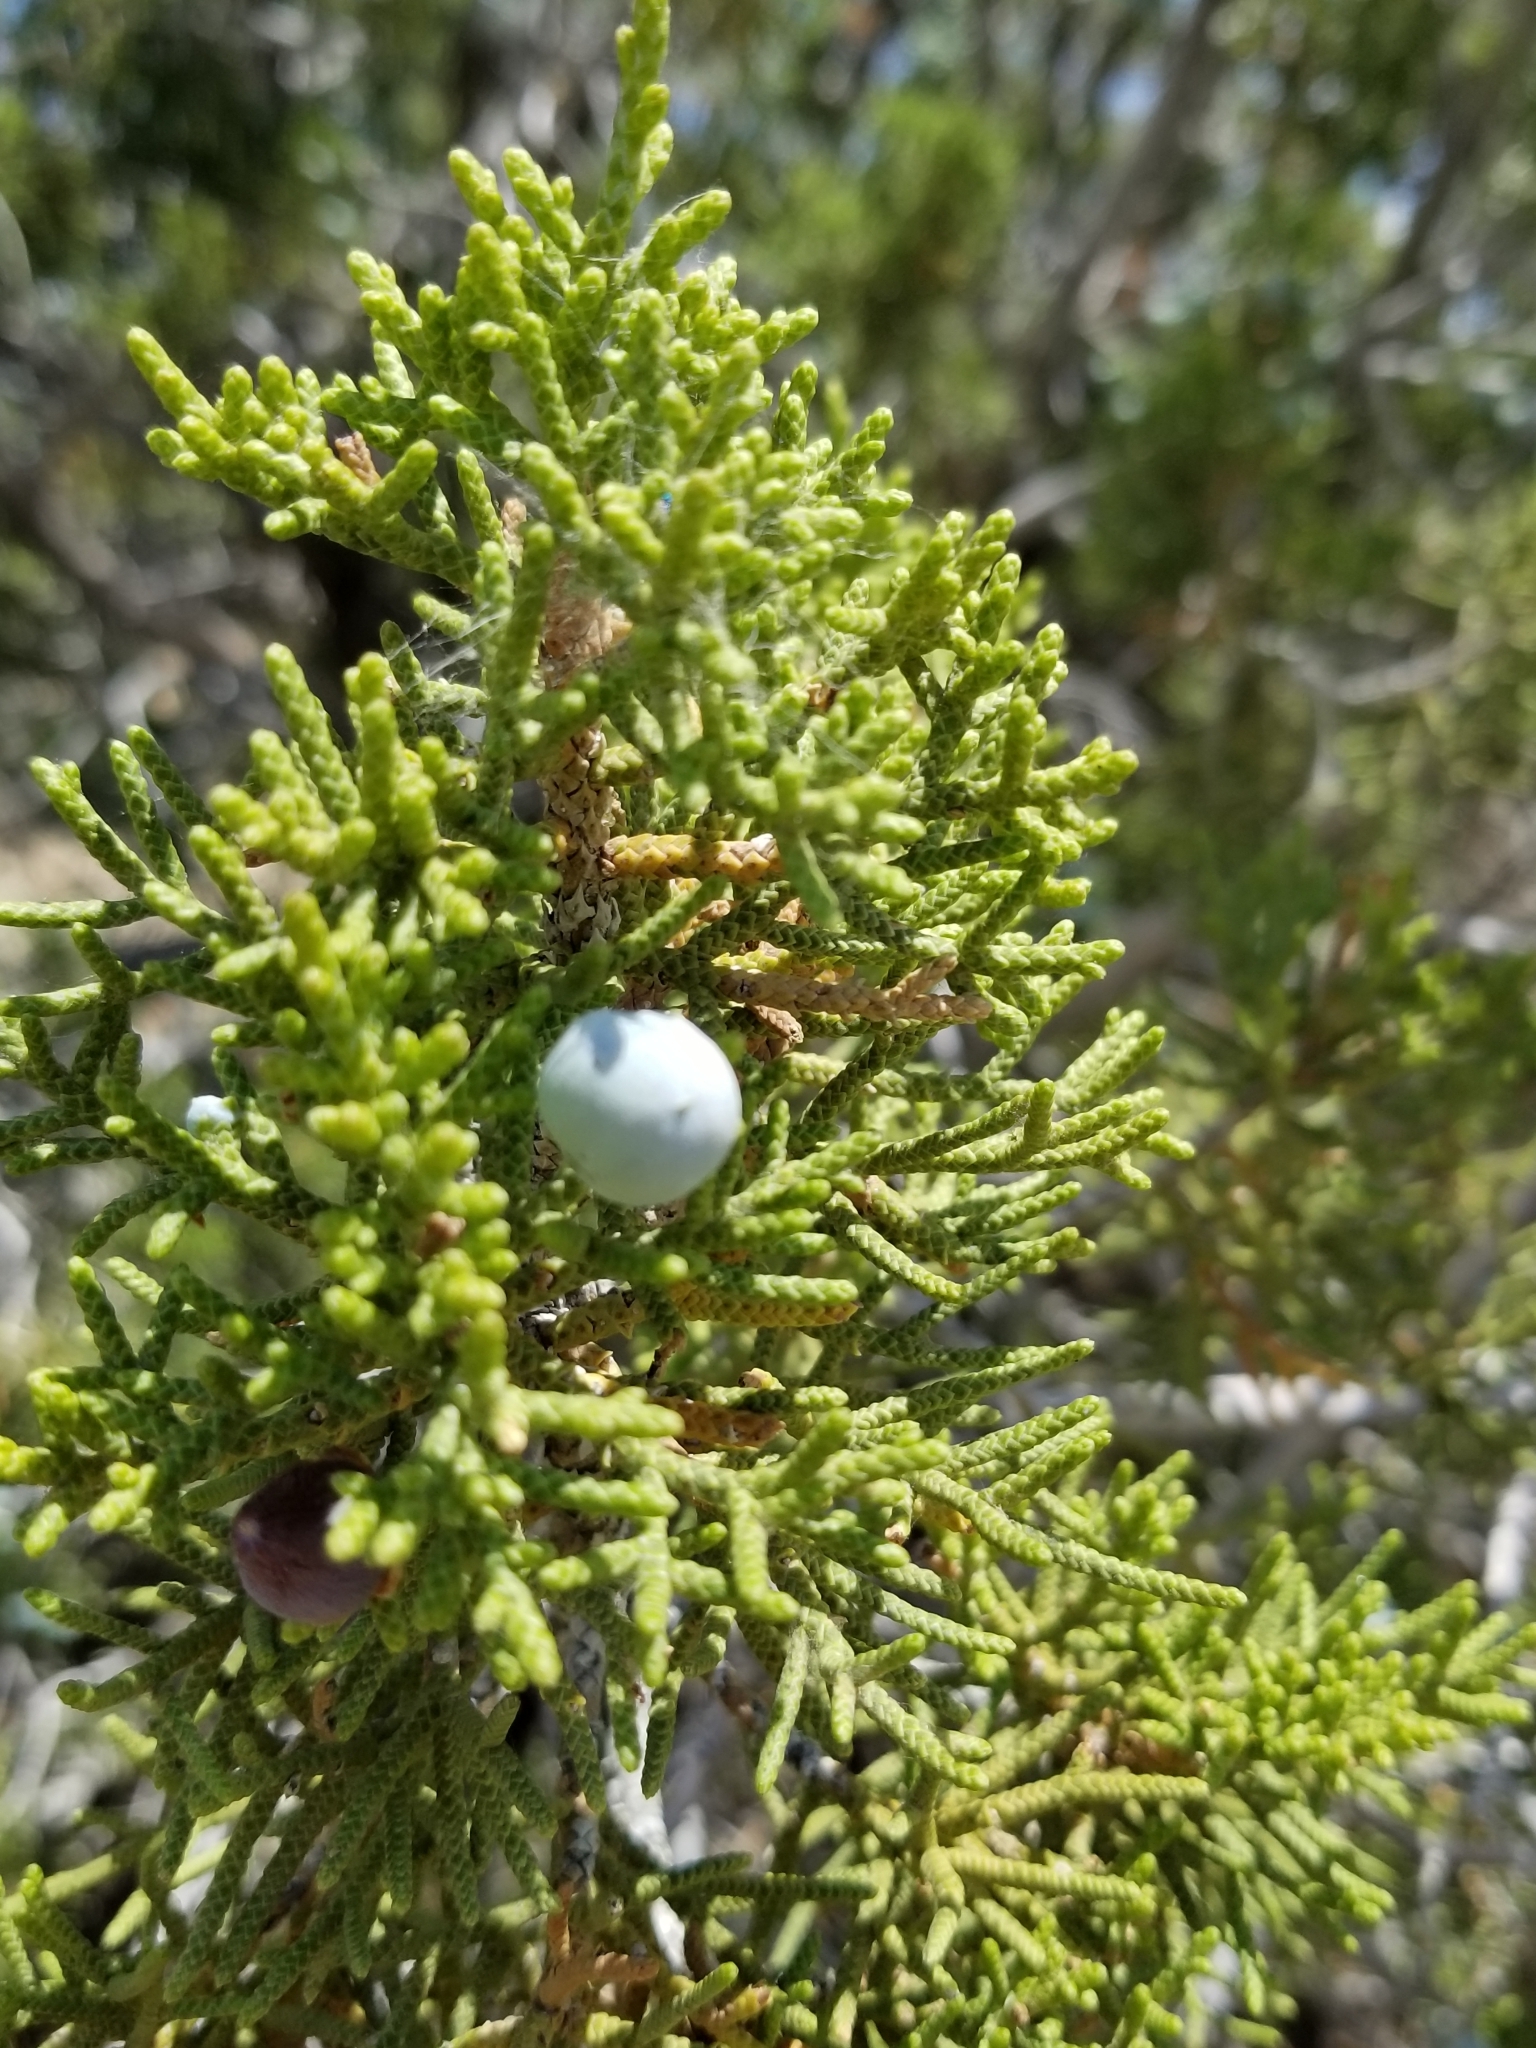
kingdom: Plantae
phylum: Tracheophyta
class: Pinopsida
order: Pinales
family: Cupressaceae
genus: Juniperus
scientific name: Juniperus californica
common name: California juniper
